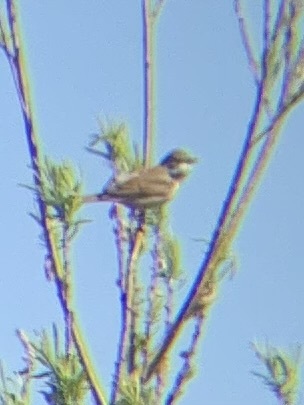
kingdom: Animalia
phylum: Chordata
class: Aves
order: Passeriformes
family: Sylviidae
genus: Sylvia
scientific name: Sylvia communis
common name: Common whitethroat
